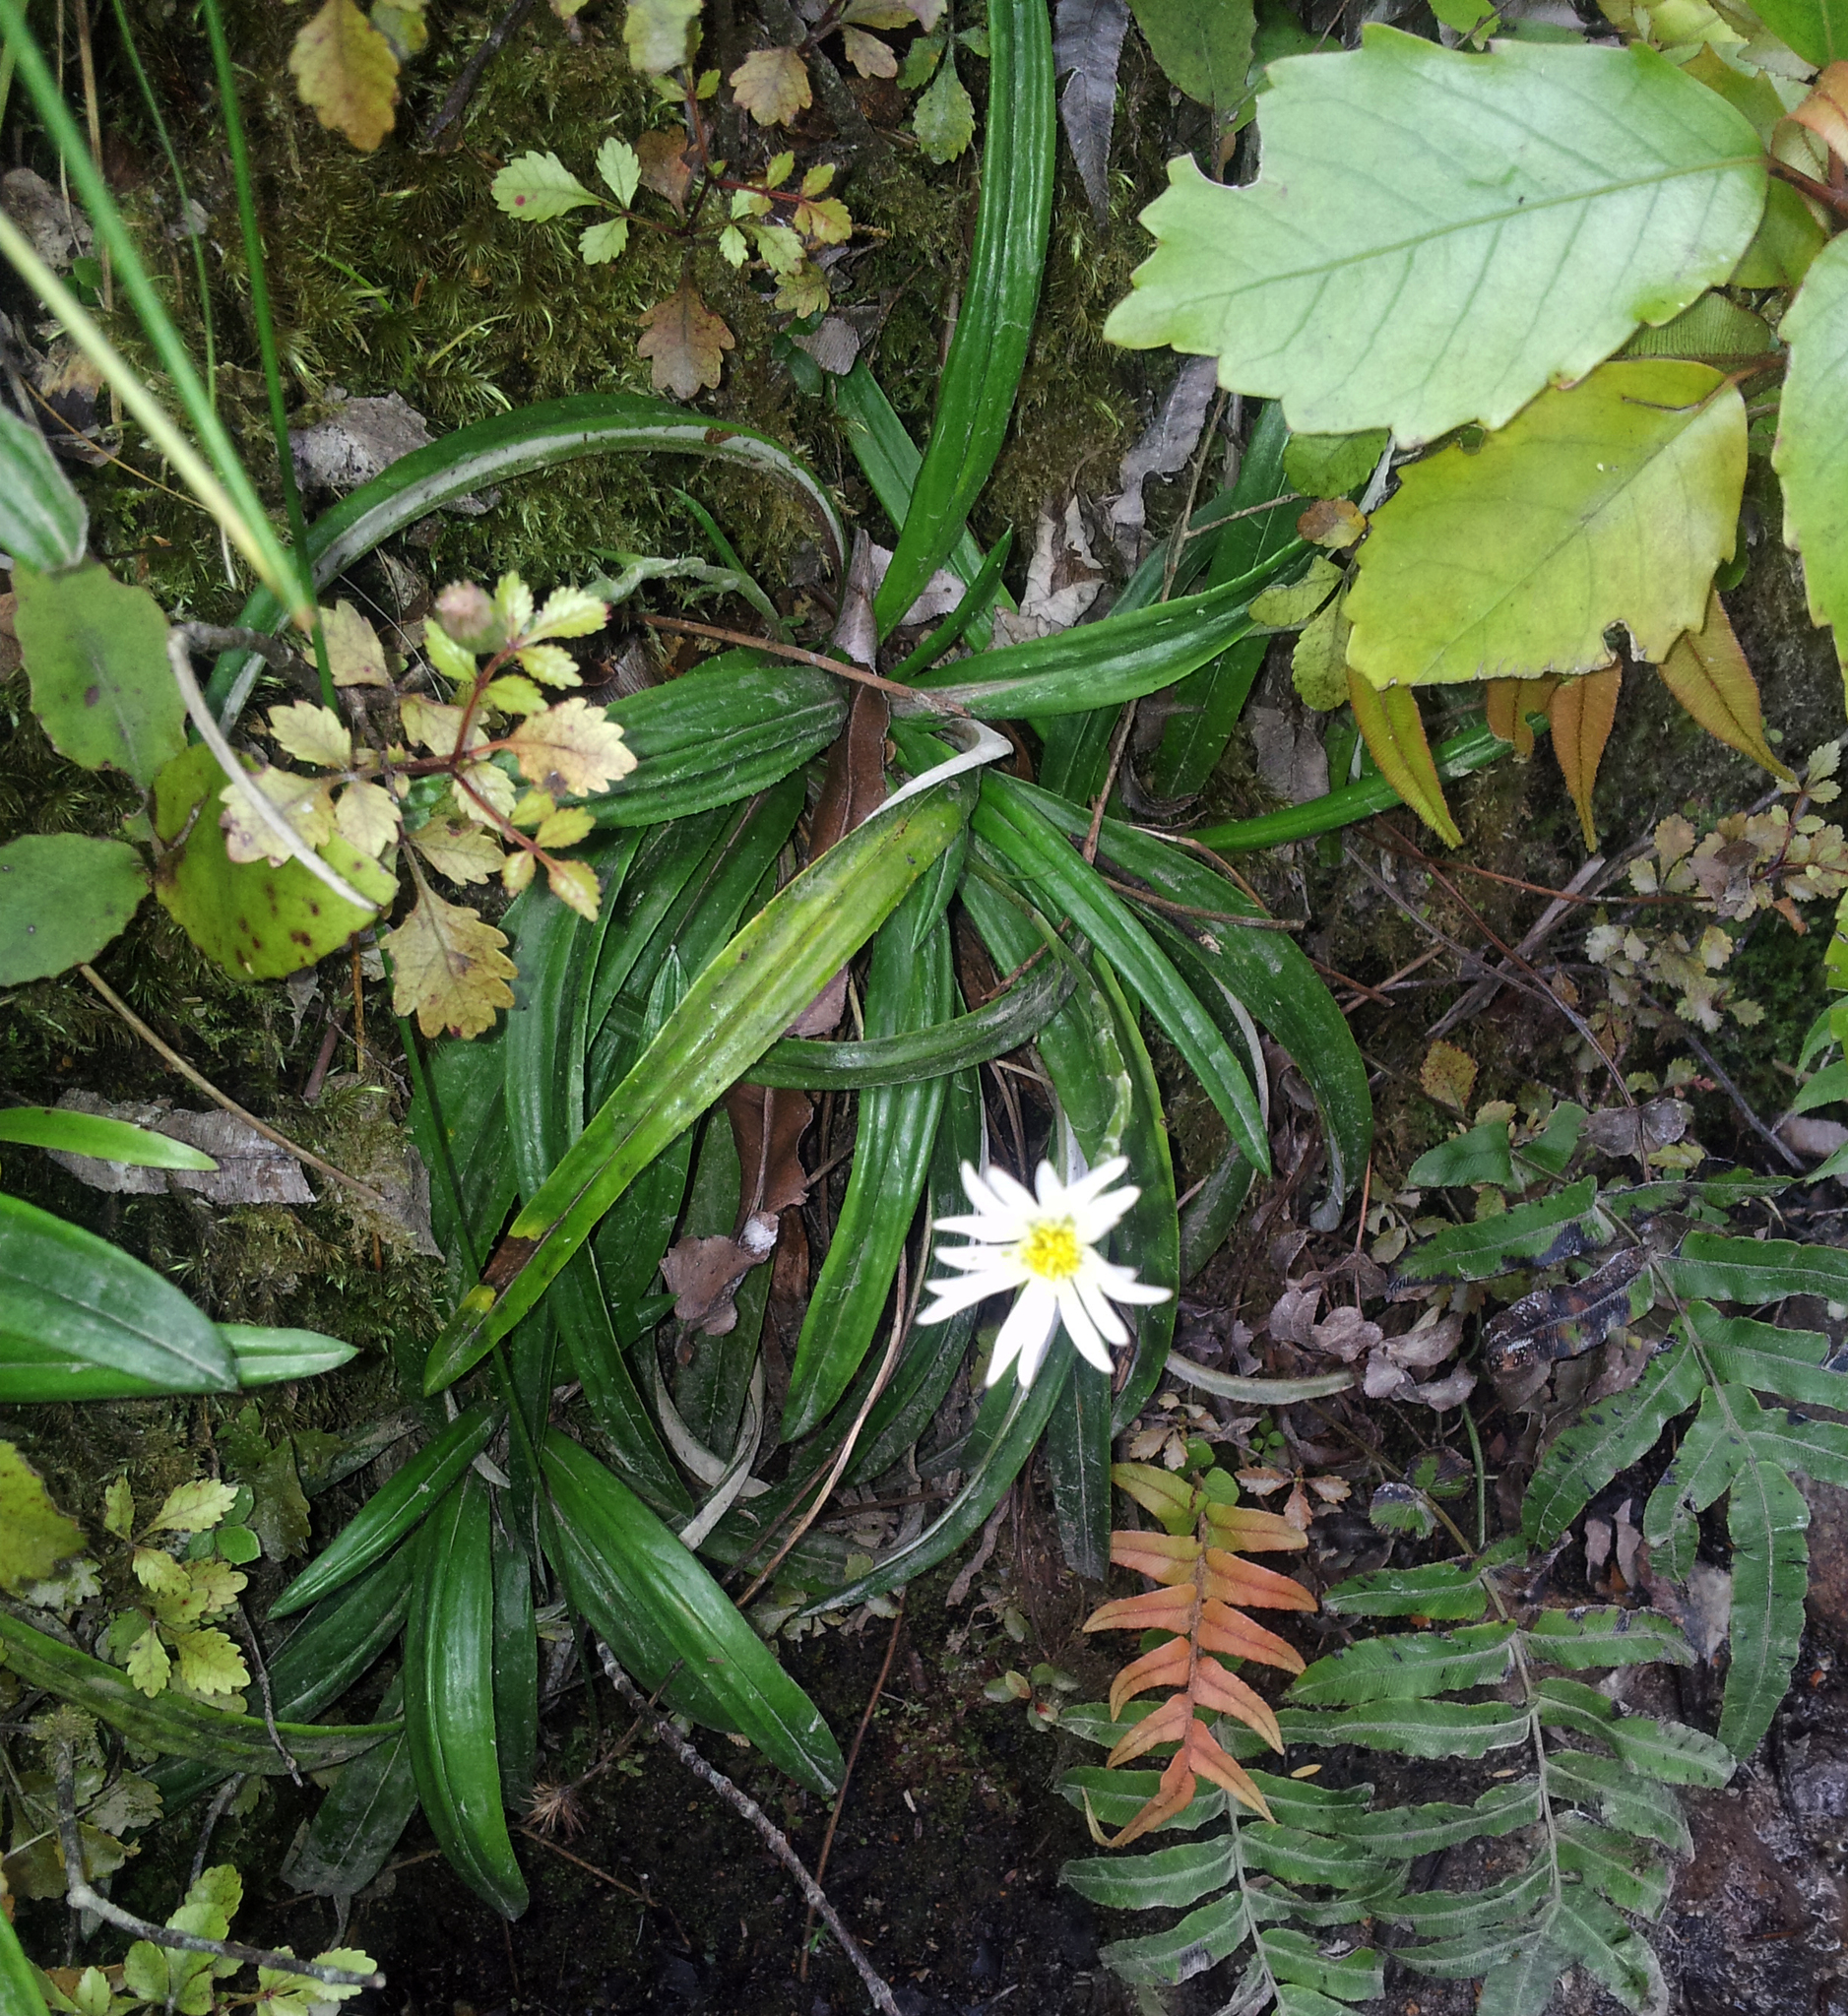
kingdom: Plantae
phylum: Tracheophyta
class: Magnoliopsida
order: Asterales
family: Asteraceae
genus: Celmisia
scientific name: Celmisia adamsii
